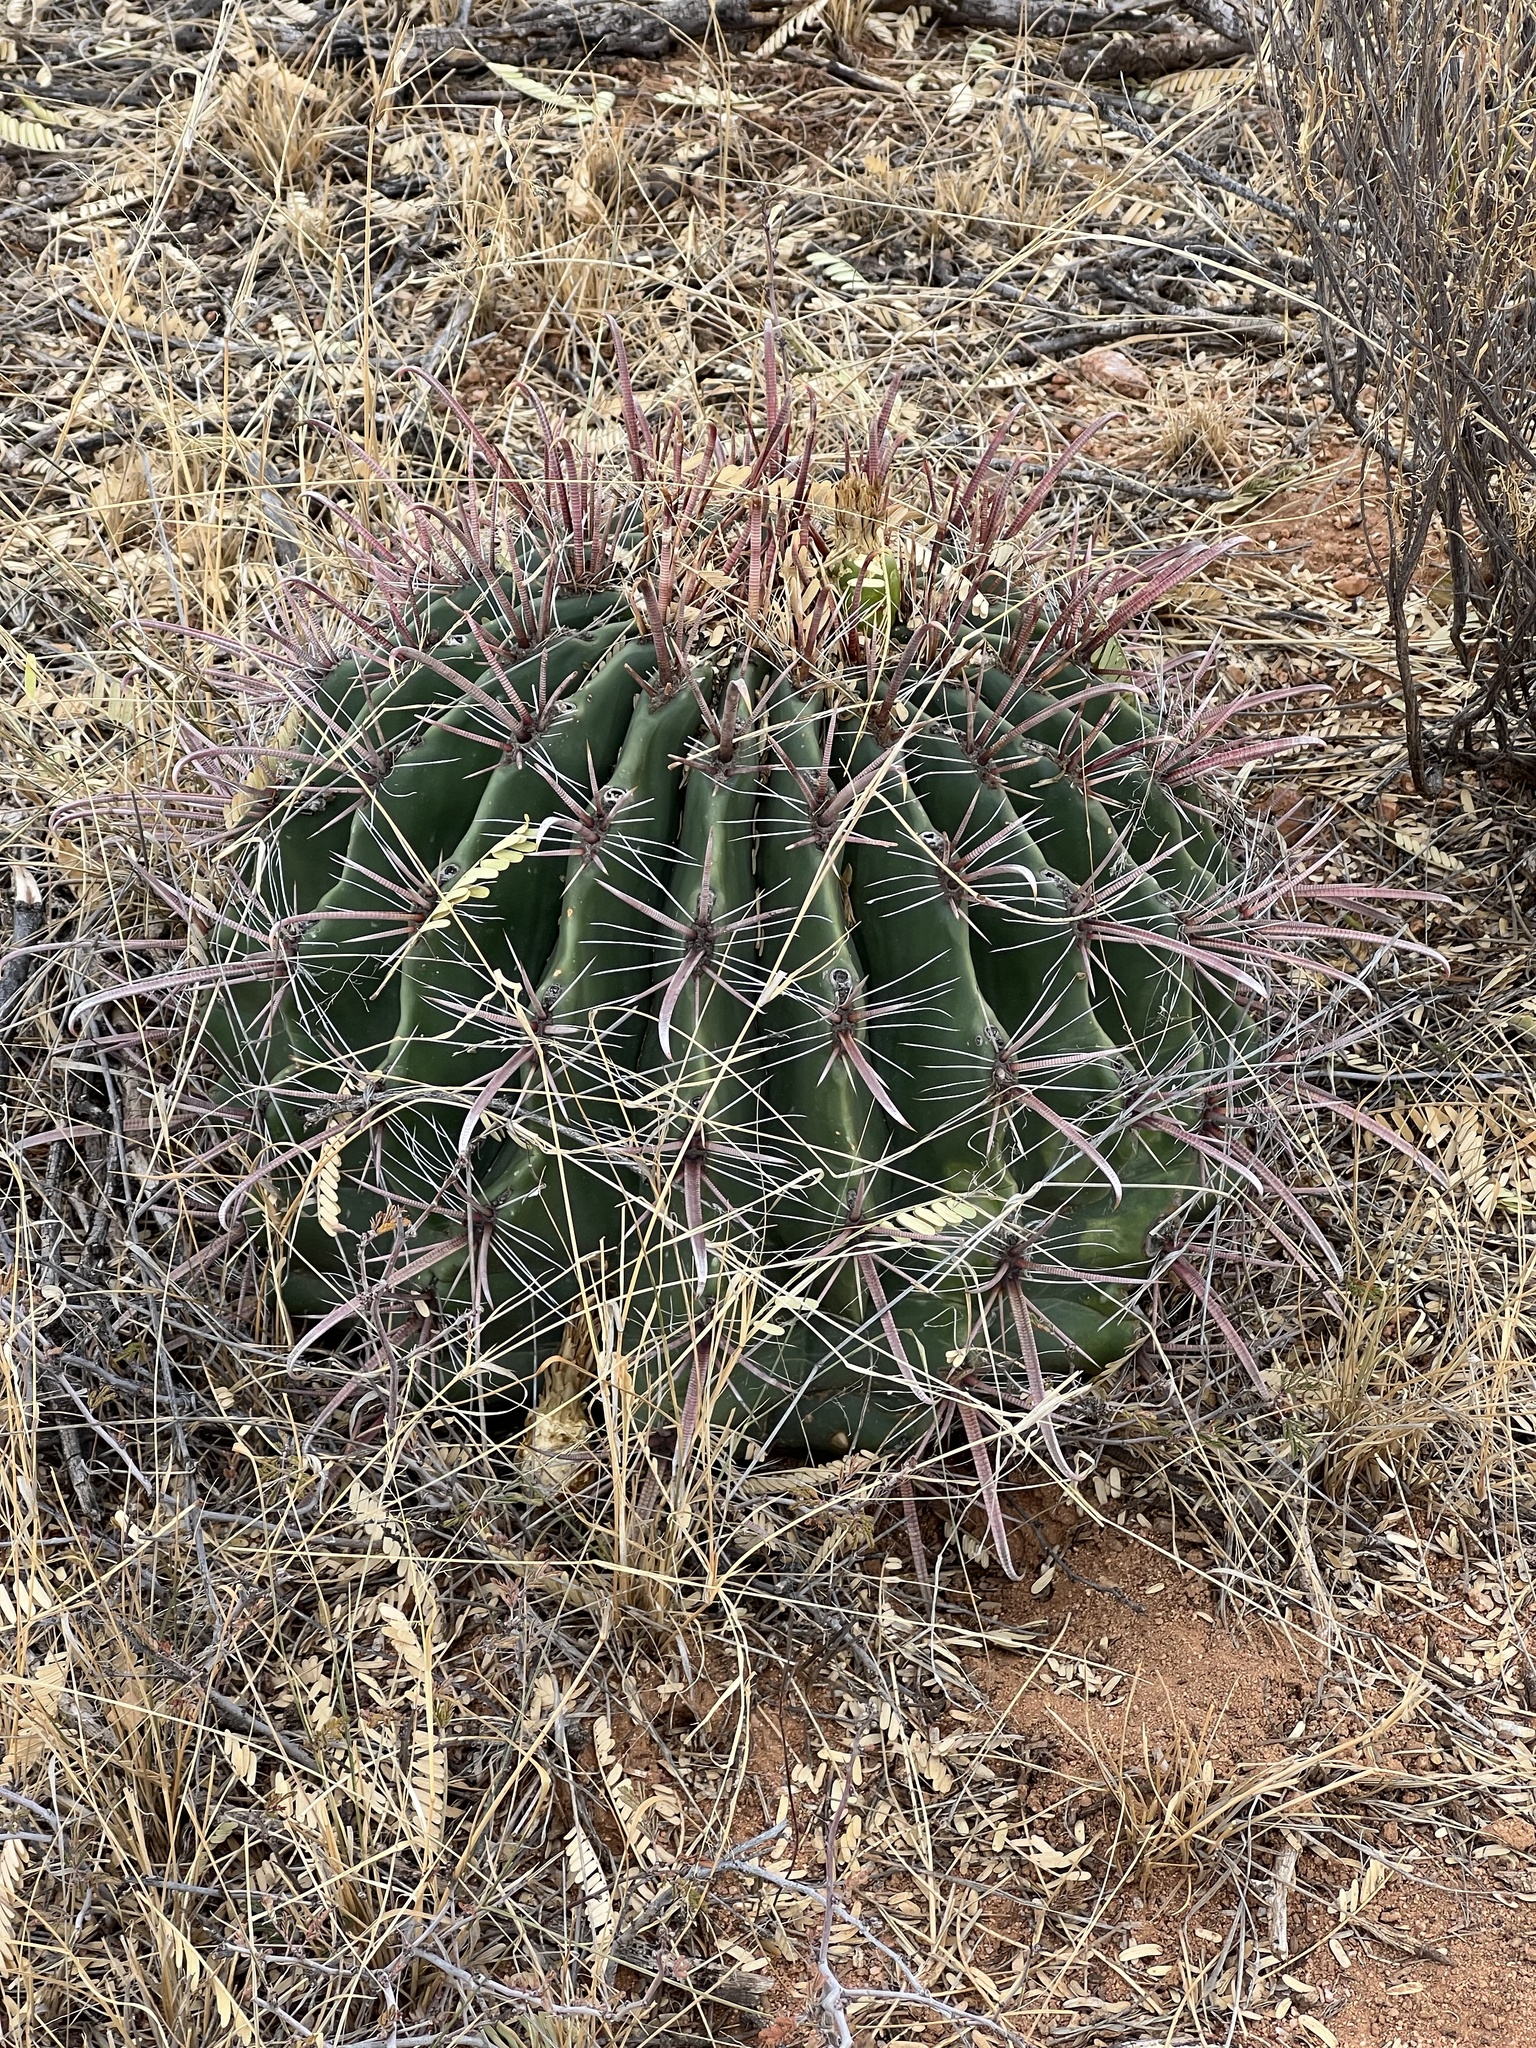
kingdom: Plantae
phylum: Tracheophyta
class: Magnoliopsida
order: Caryophyllales
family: Cactaceae
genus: Ferocactus
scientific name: Ferocactus wislizeni
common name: Candy barrel cactus
